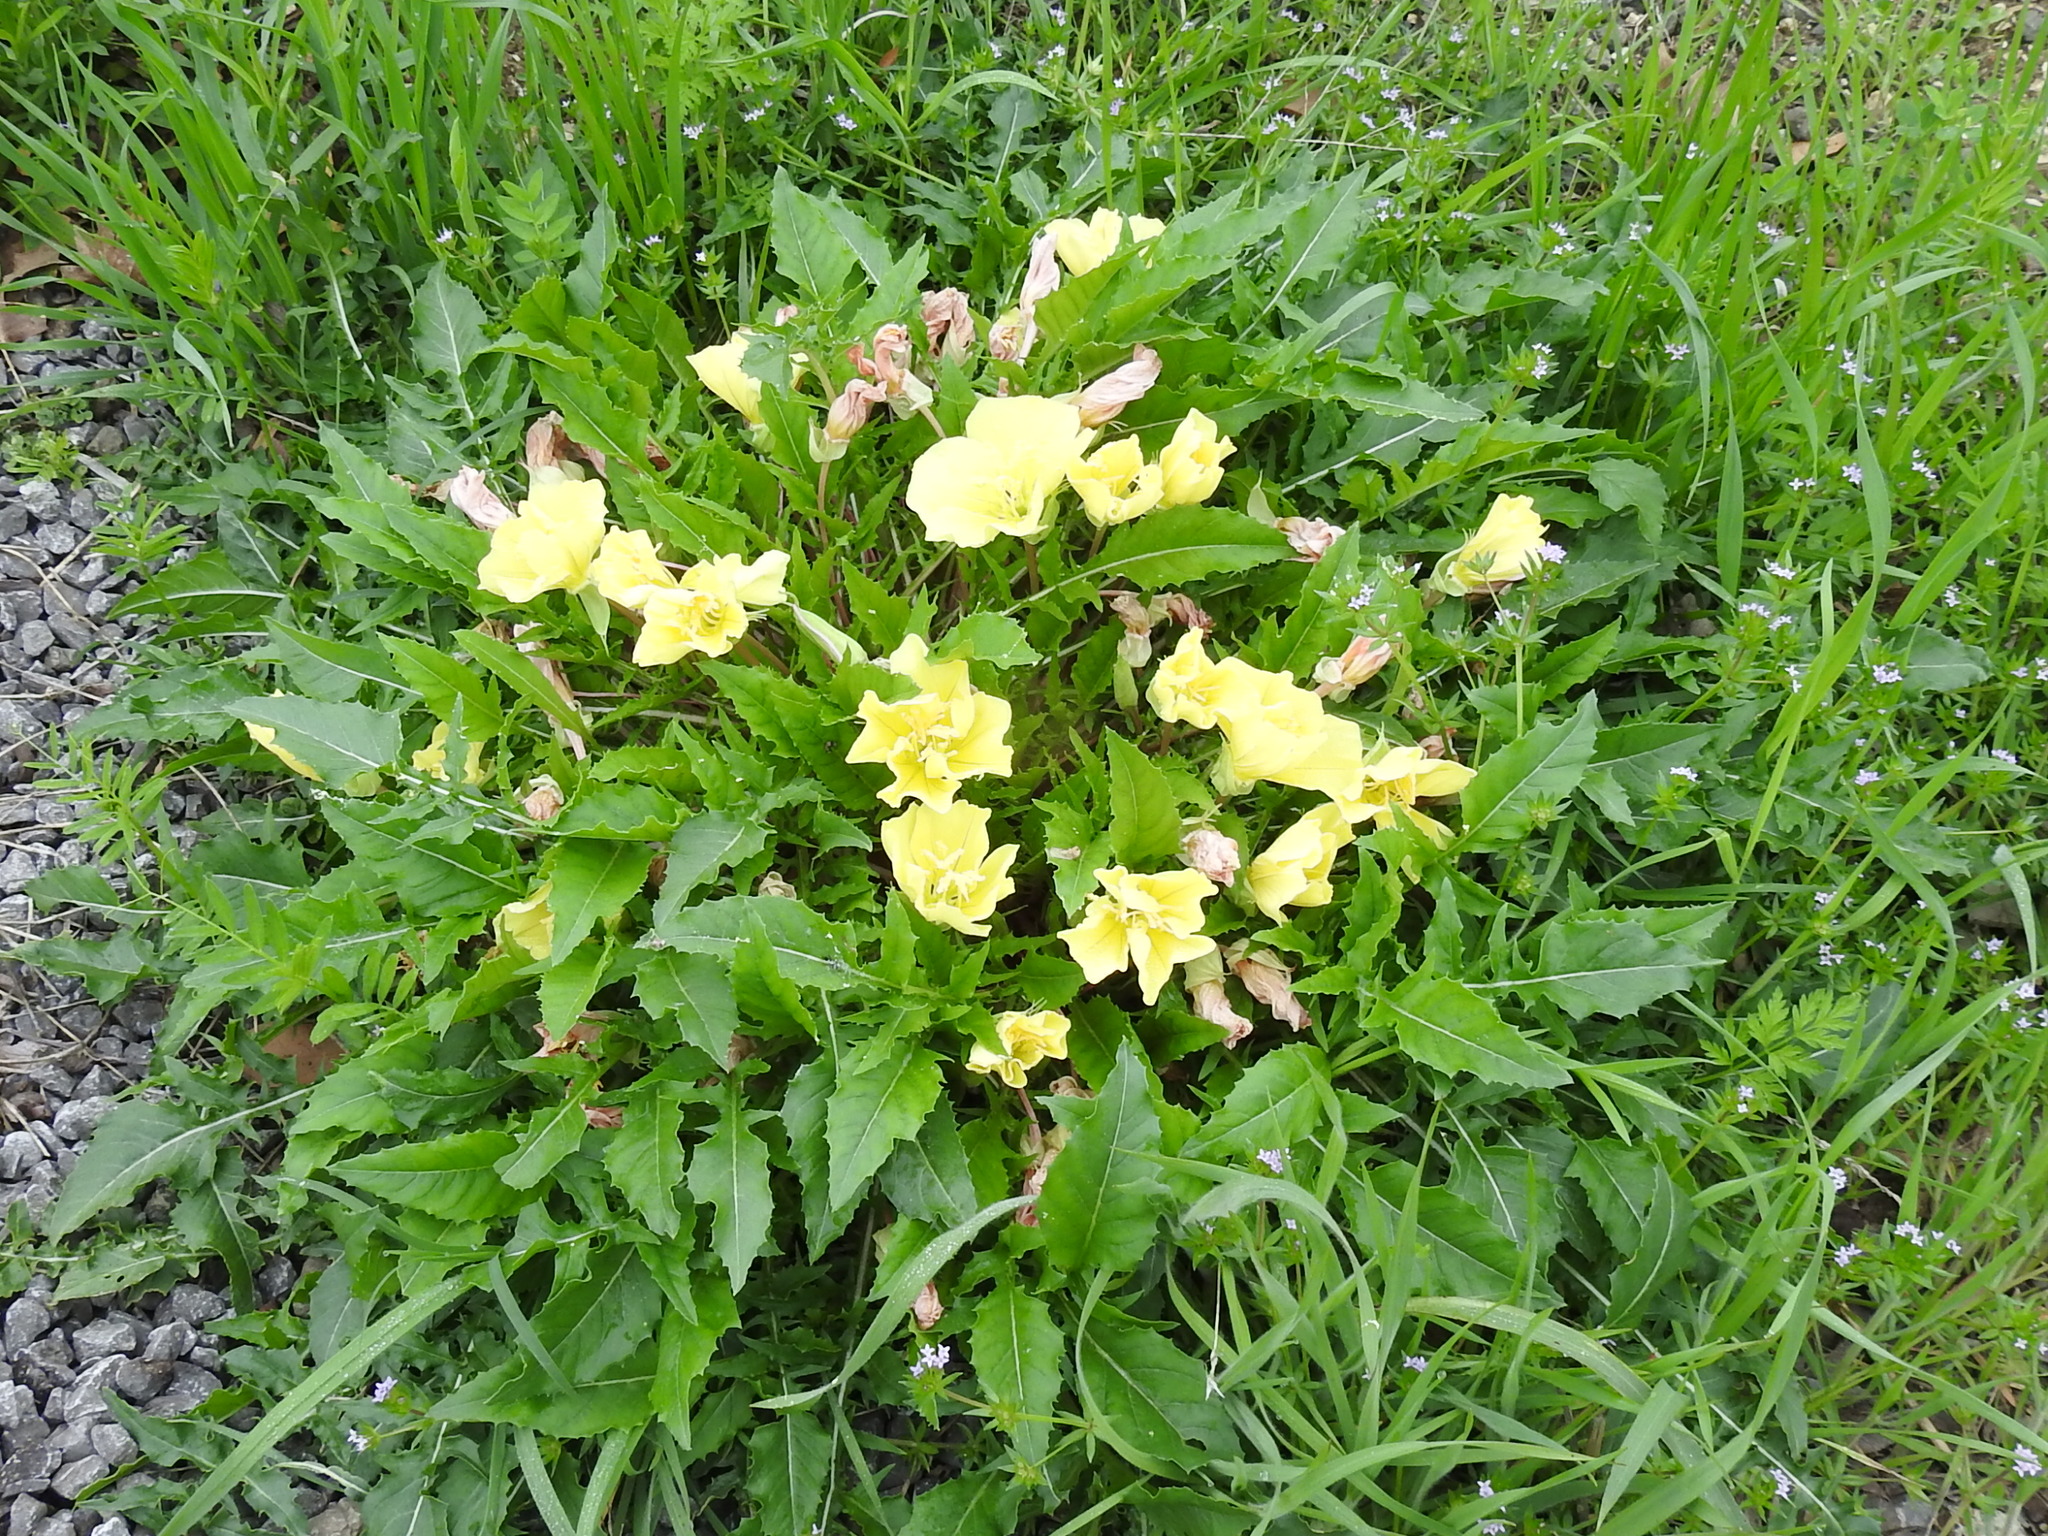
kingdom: Plantae
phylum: Tracheophyta
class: Magnoliopsida
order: Myrtales
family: Onagraceae
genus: Oenothera
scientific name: Oenothera triloba
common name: Sessile evening-primrose
